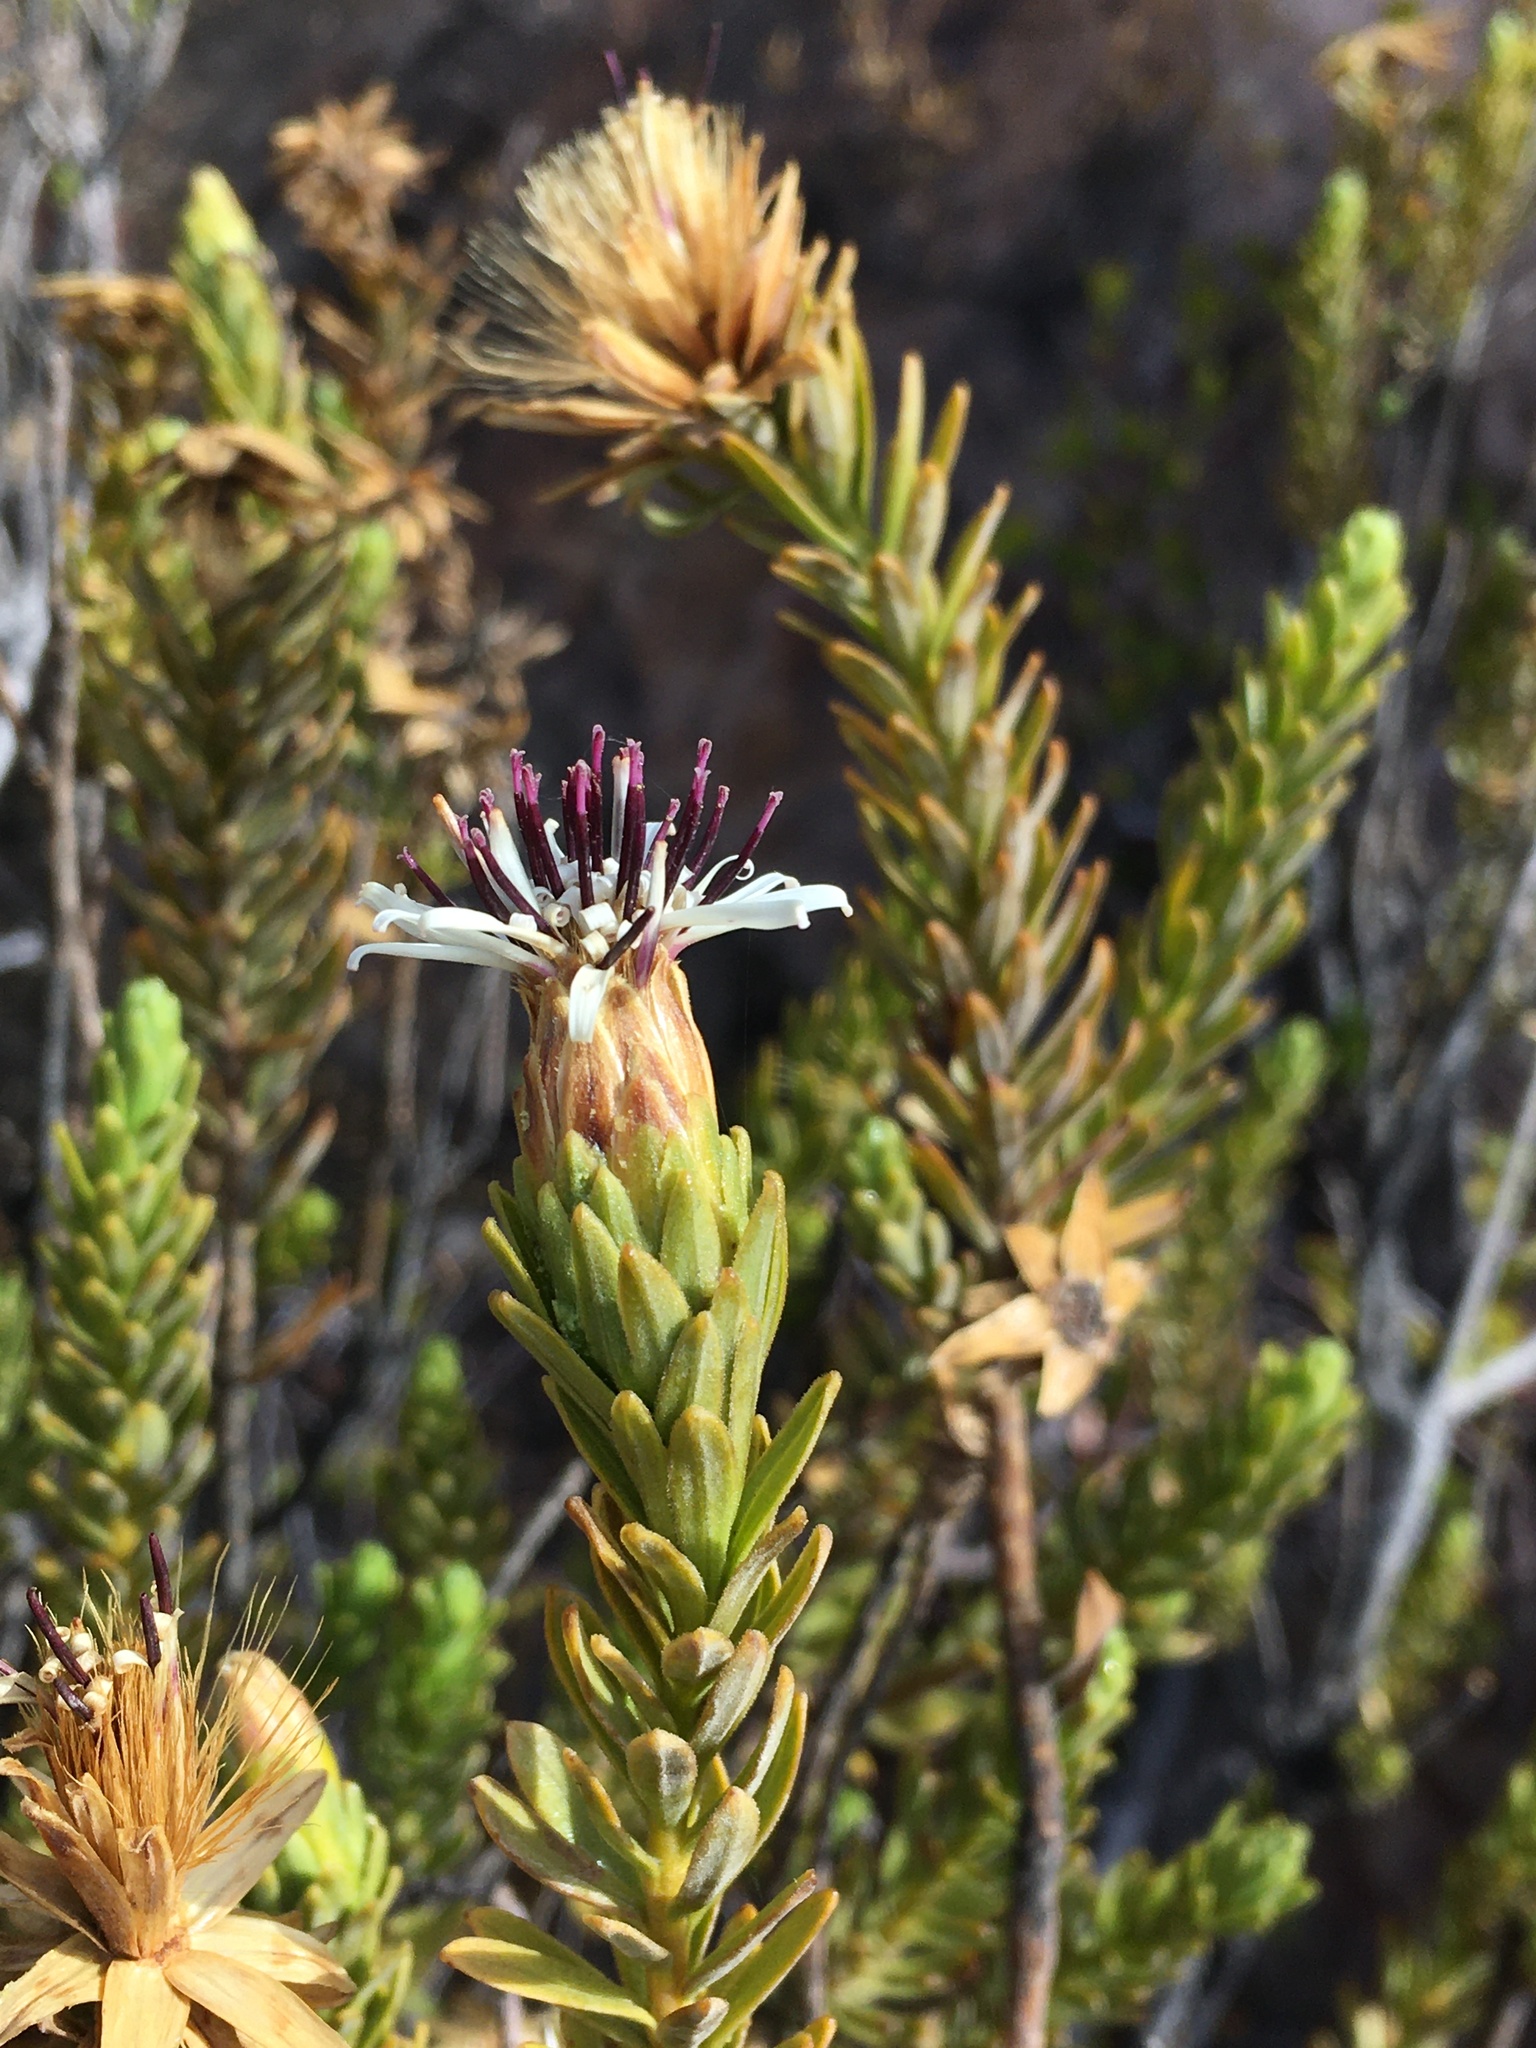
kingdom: Plantae
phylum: Tracheophyta
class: Magnoliopsida
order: Asterales
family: Asteraceae
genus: Plazia
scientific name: Plazia daphnoides
